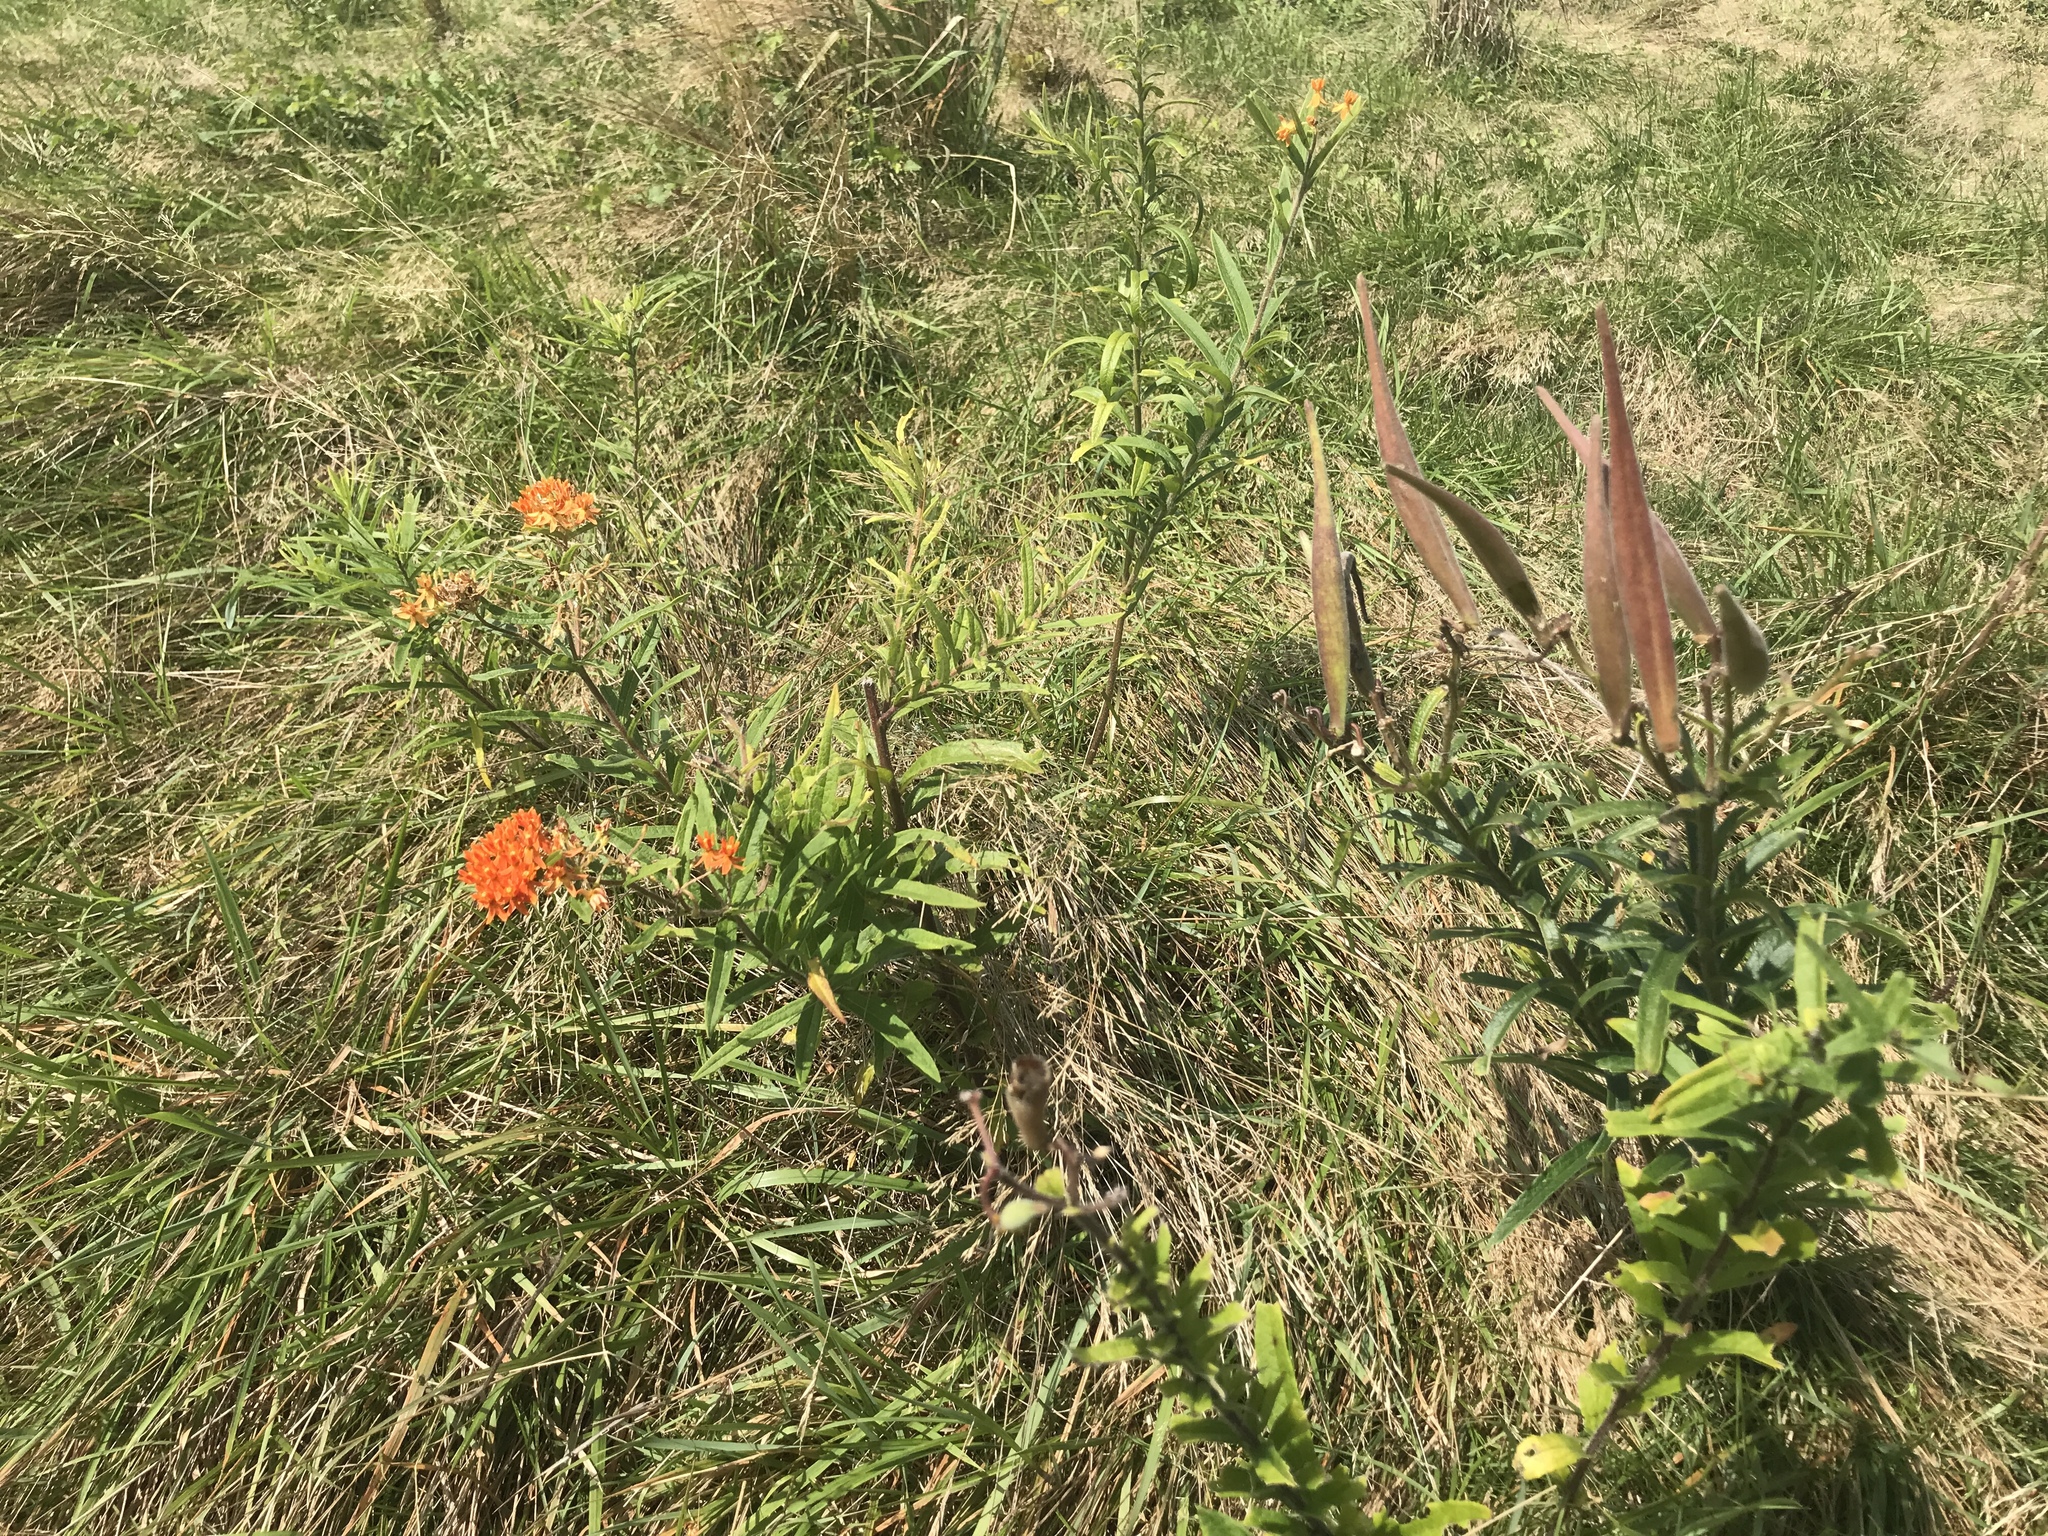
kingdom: Plantae
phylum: Tracheophyta
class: Magnoliopsida
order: Gentianales
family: Apocynaceae
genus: Asclepias
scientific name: Asclepias tuberosa
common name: Butterfly milkweed
